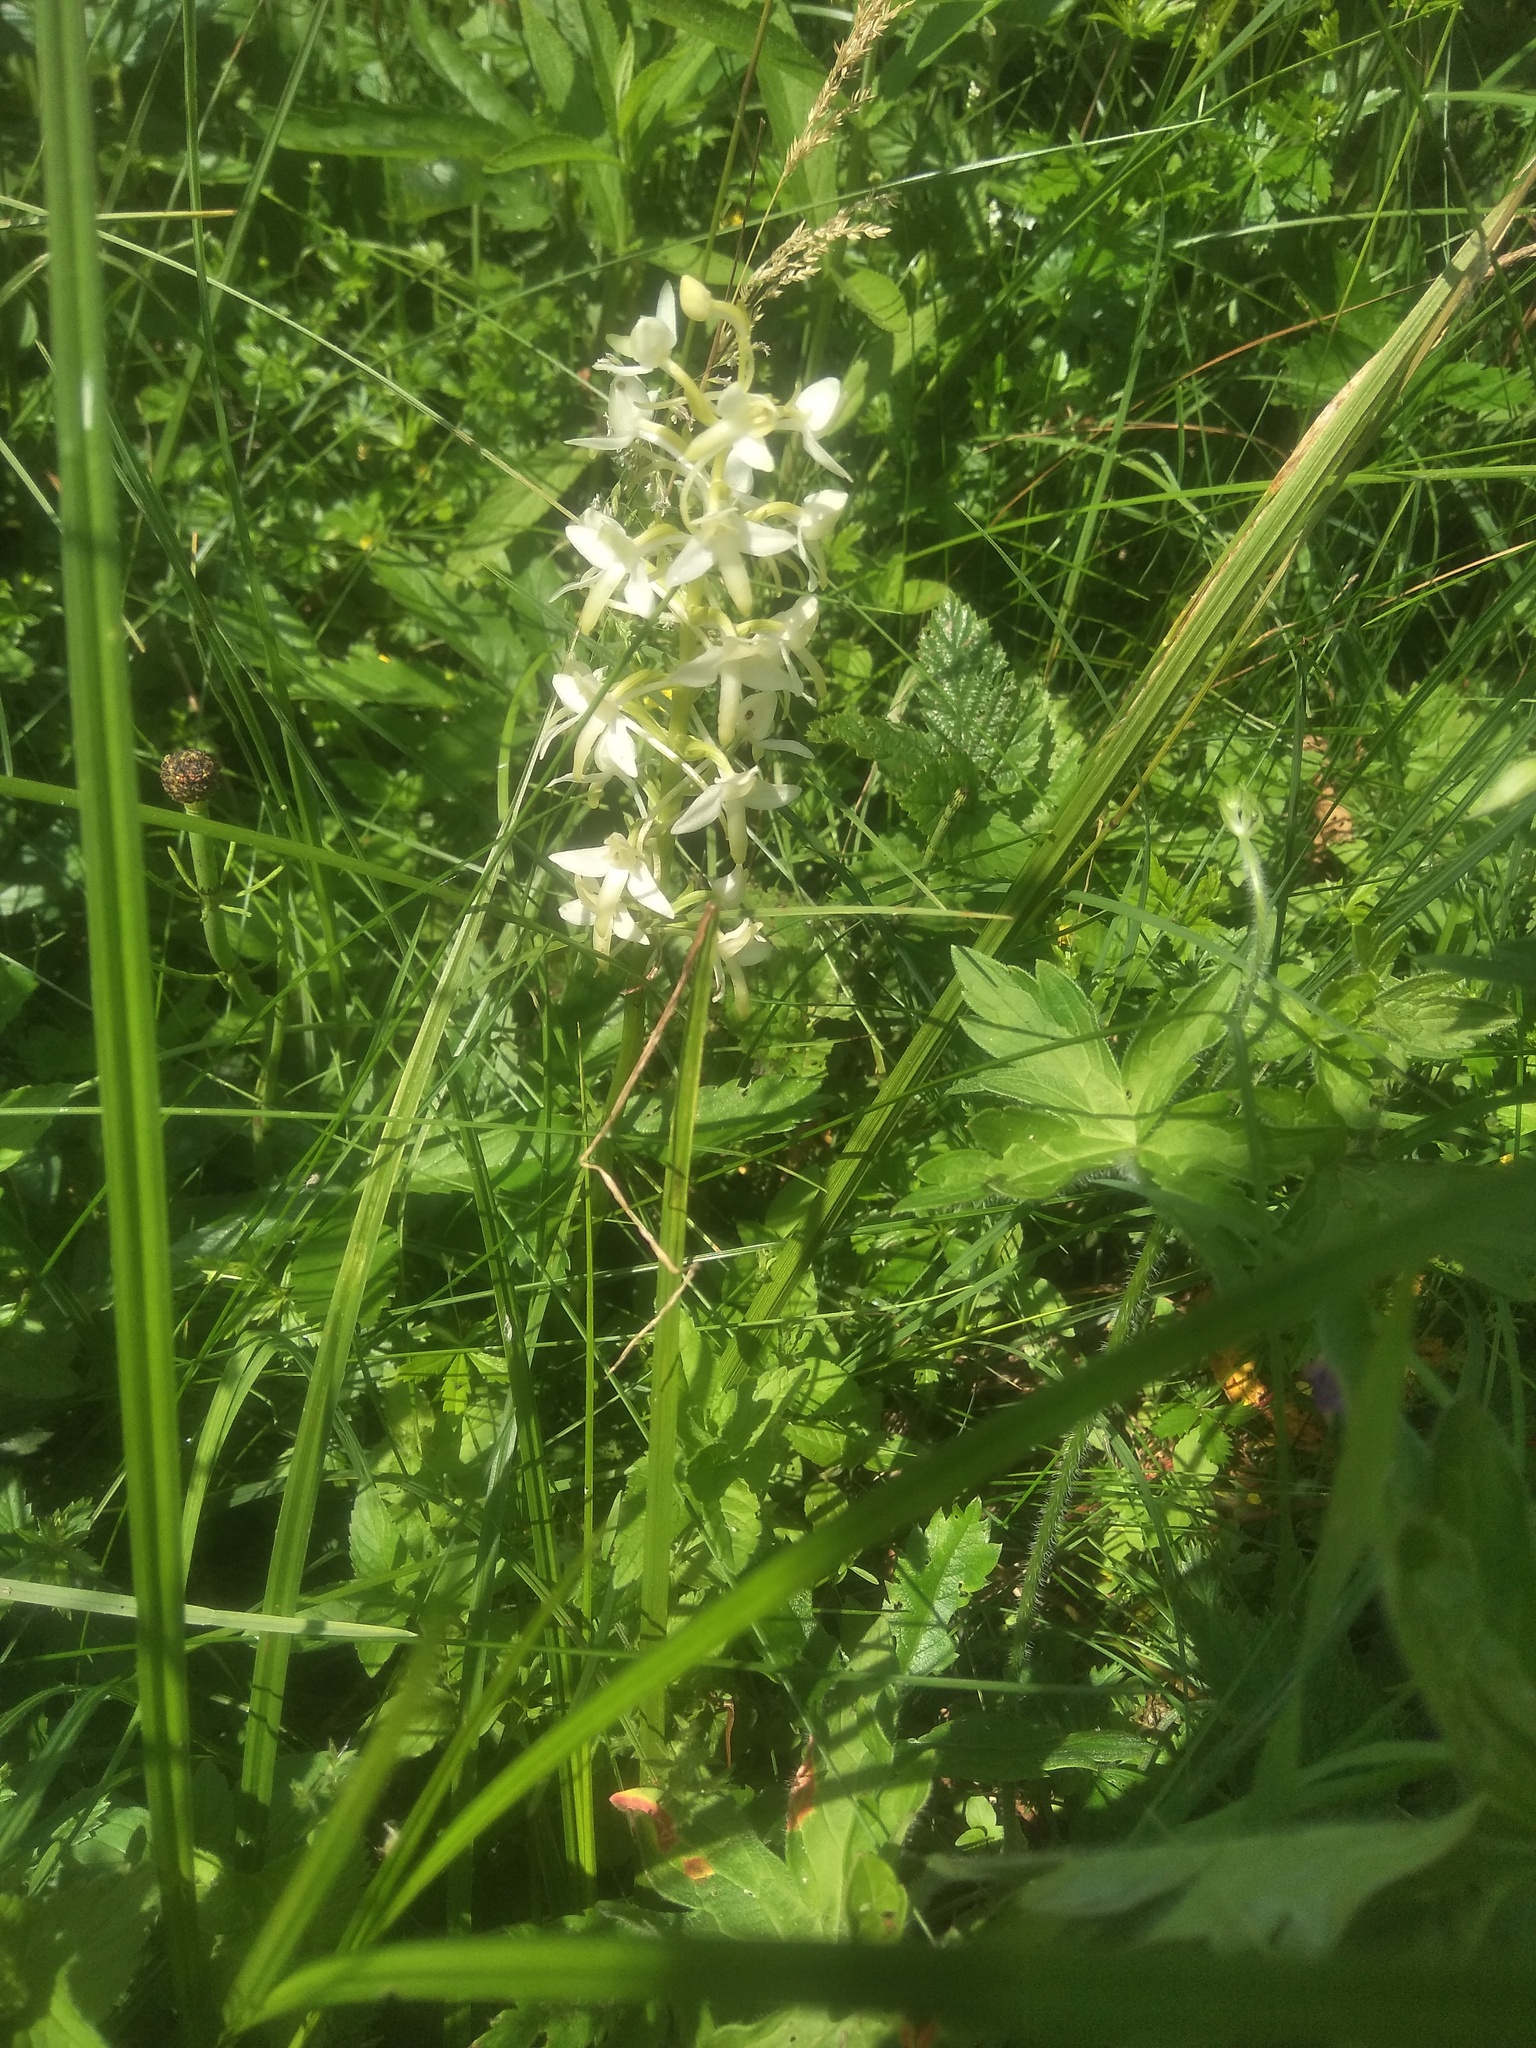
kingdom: Plantae
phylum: Tracheophyta
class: Liliopsida
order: Asparagales
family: Orchidaceae
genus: Platanthera
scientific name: Platanthera bifolia
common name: Lesser butterfly-orchid
